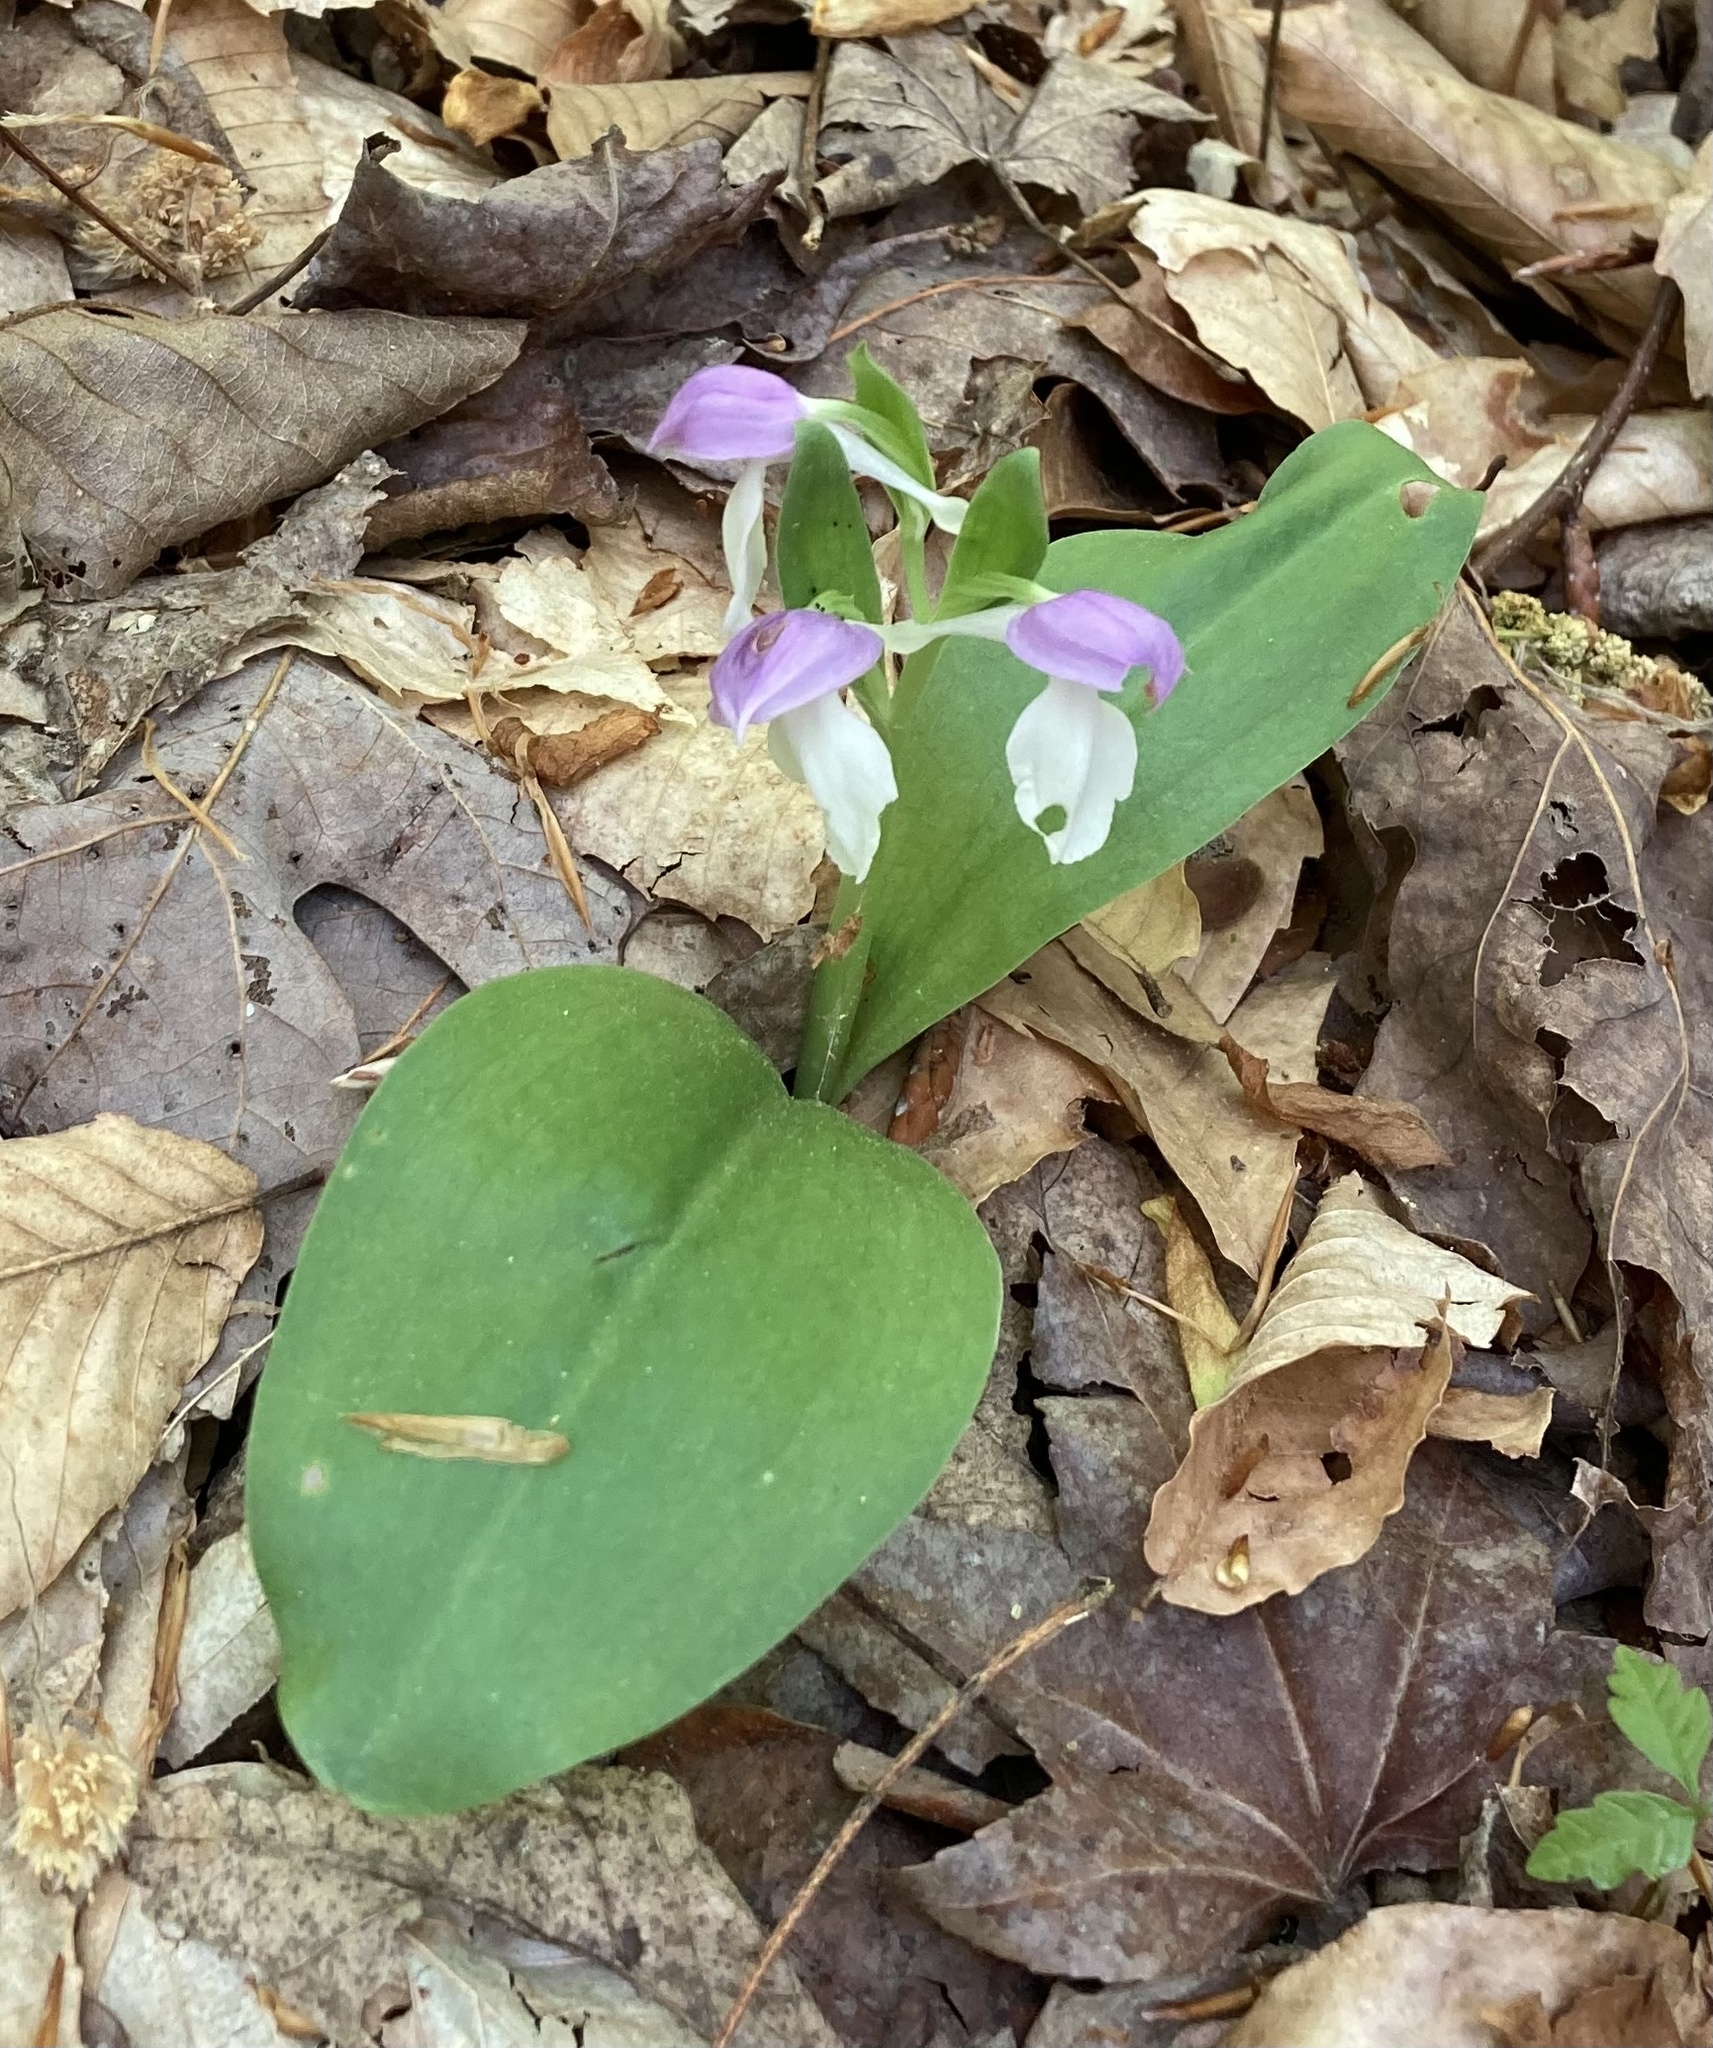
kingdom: Plantae
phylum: Tracheophyta
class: Liliopsida
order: Asparagales
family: Orchidaceae
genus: Galearis
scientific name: Galearis spectabilis
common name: Purple-hooded orchis
